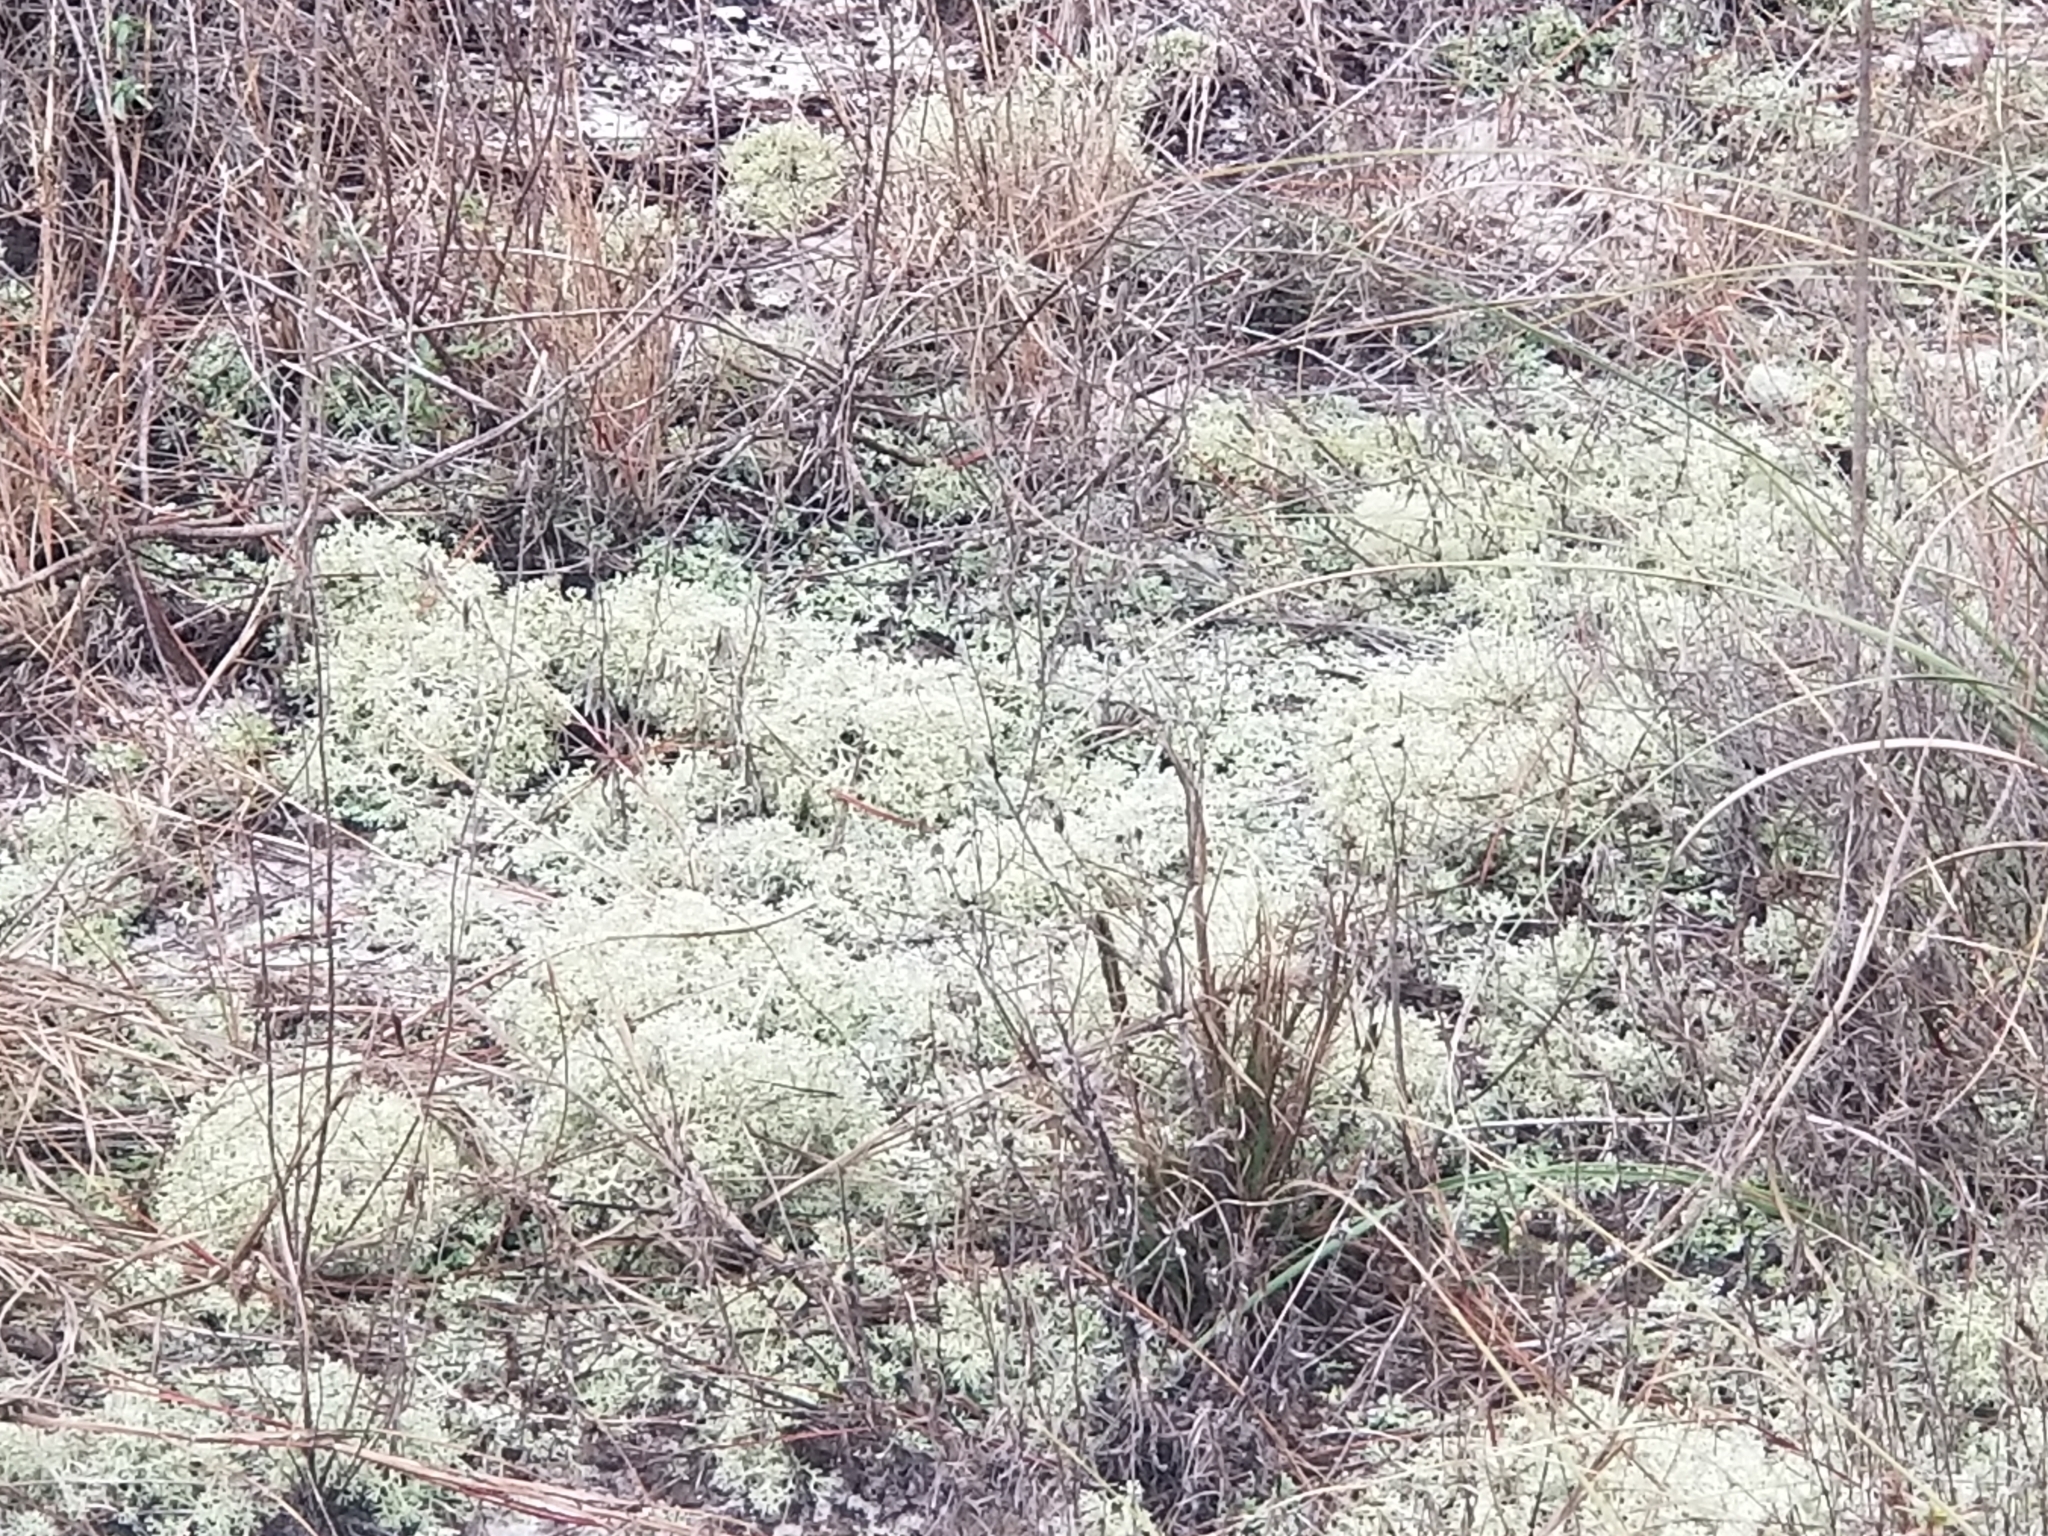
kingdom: Fungi
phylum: Ascomycota
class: Lecanoromycetes
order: Lecanorales
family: Cladoniaceae
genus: Cladonia
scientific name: Cladonia
